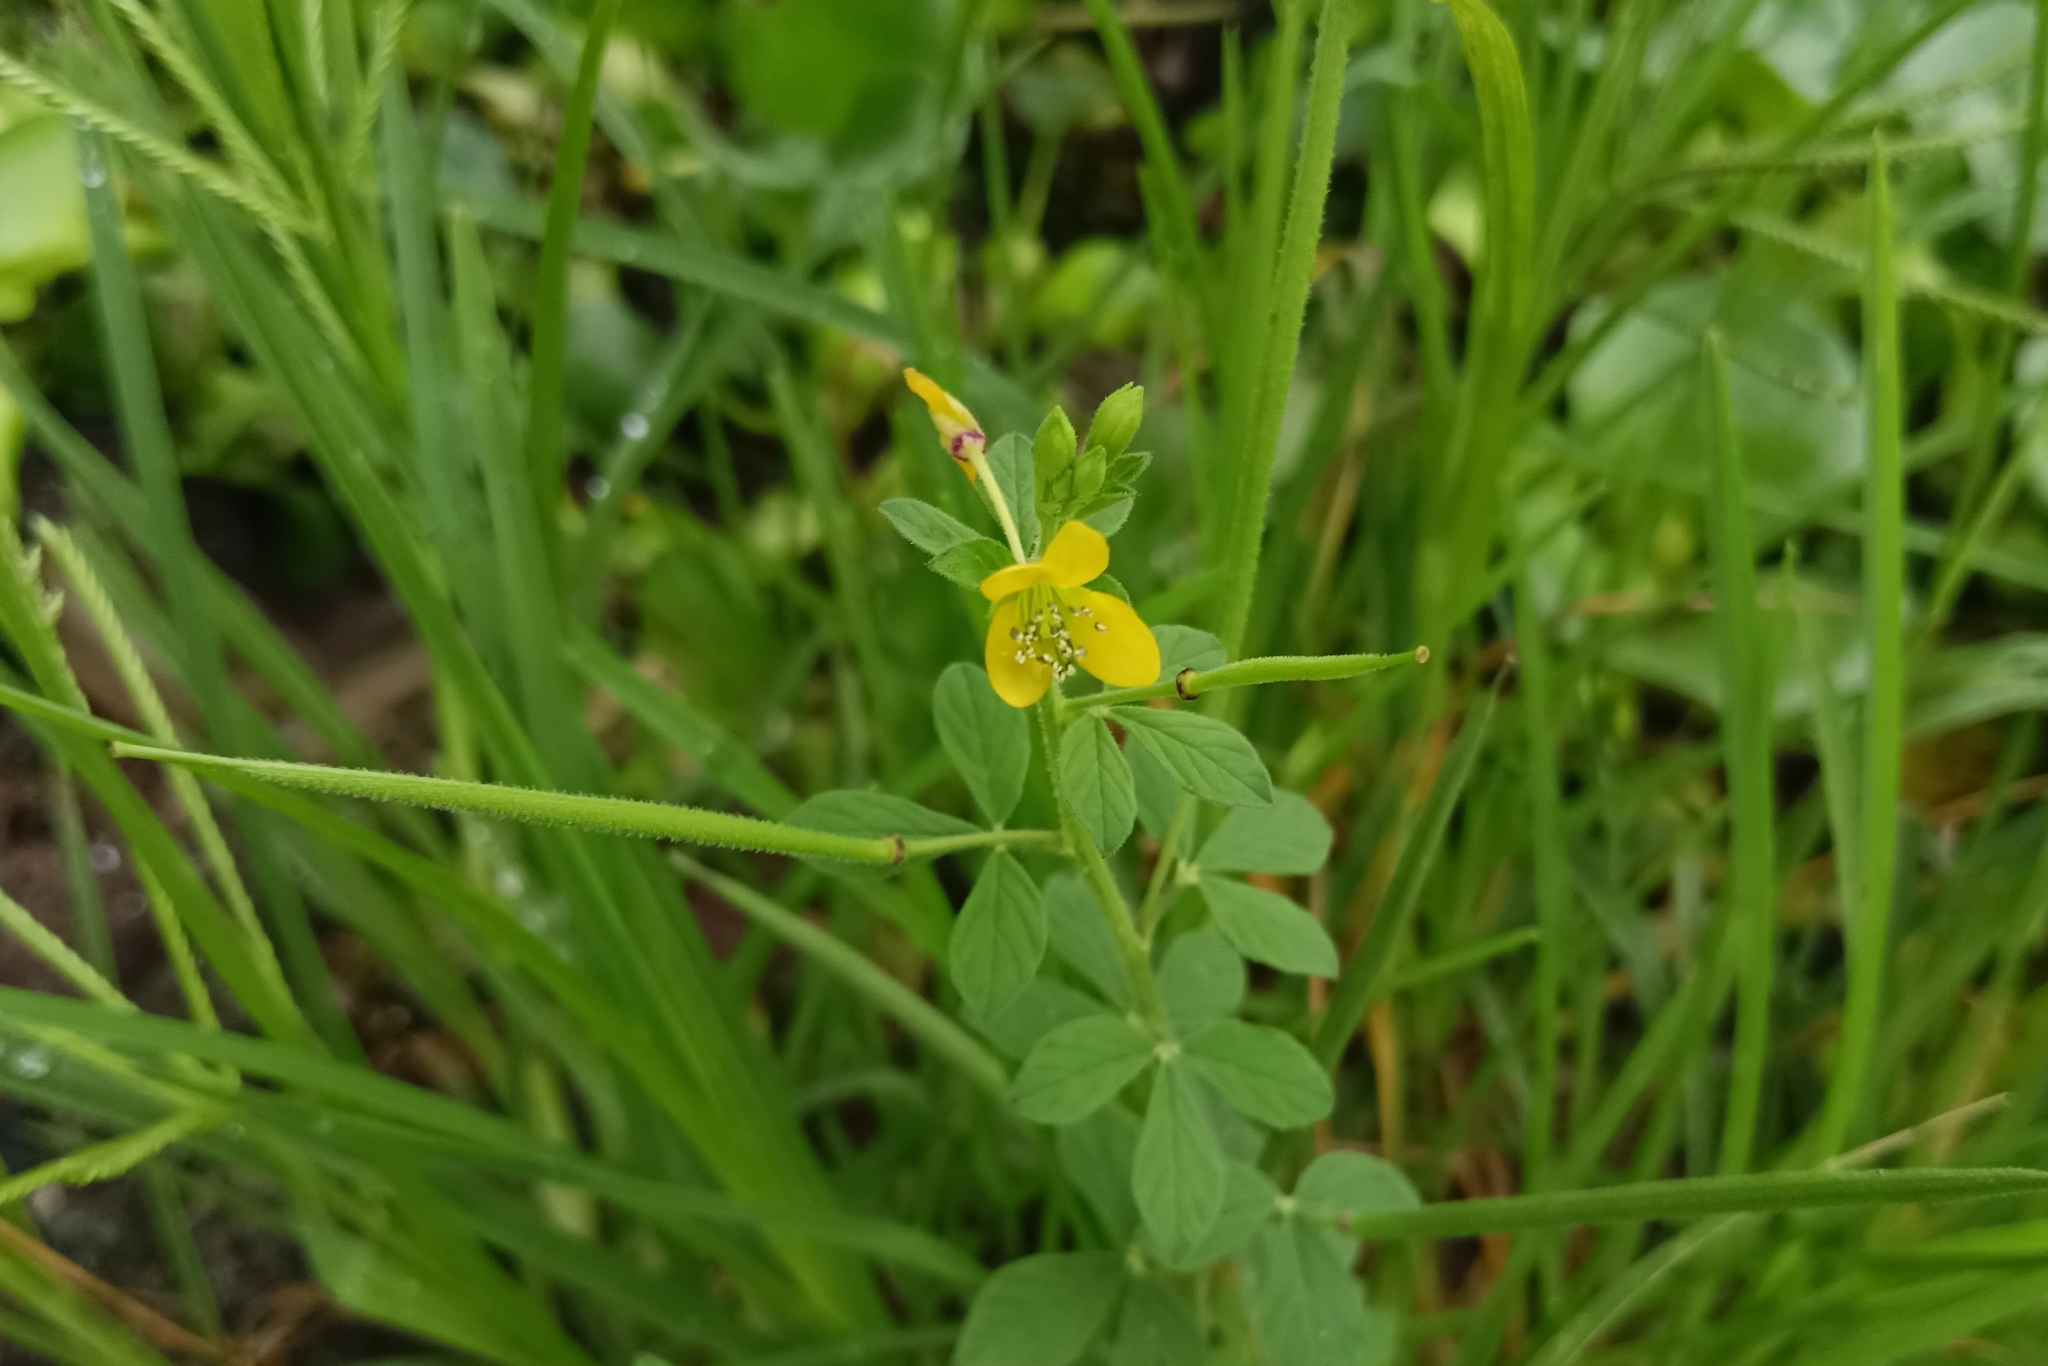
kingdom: Plantae
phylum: Tracheophyta
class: Magnoliopsida
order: Brassicales
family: Cleomaceae
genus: Arivela
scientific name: Arivela viscosa
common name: Asian spiderflower
